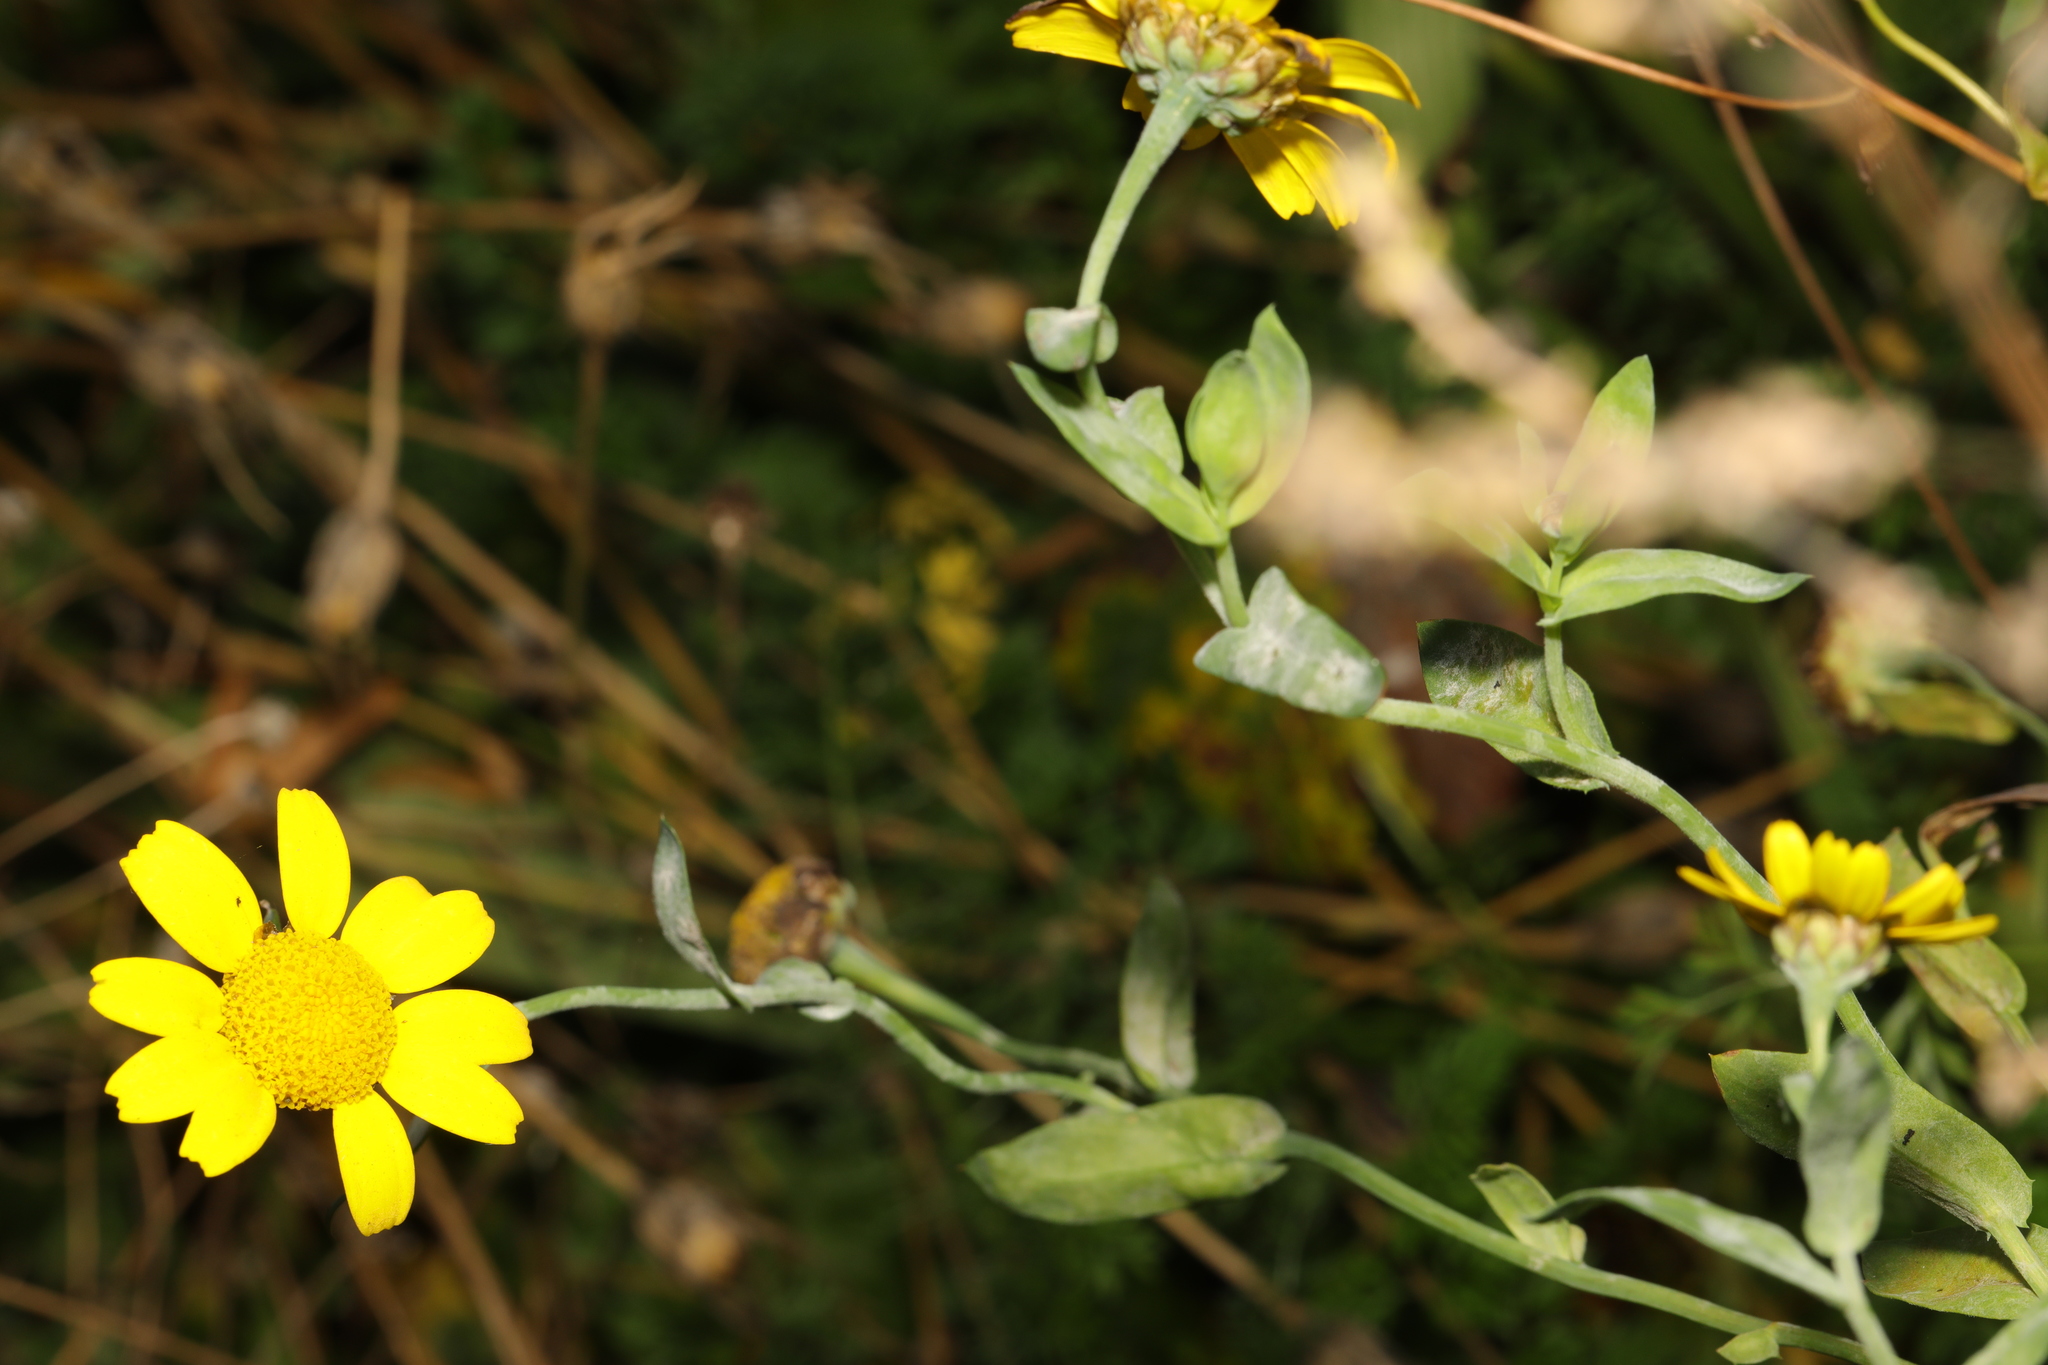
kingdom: Plantae
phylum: Tracheophyta
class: Magnoliopsida
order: Asterales
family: Asteraceae
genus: Glebionis
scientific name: Glebionis segetum
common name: Corndaisy
